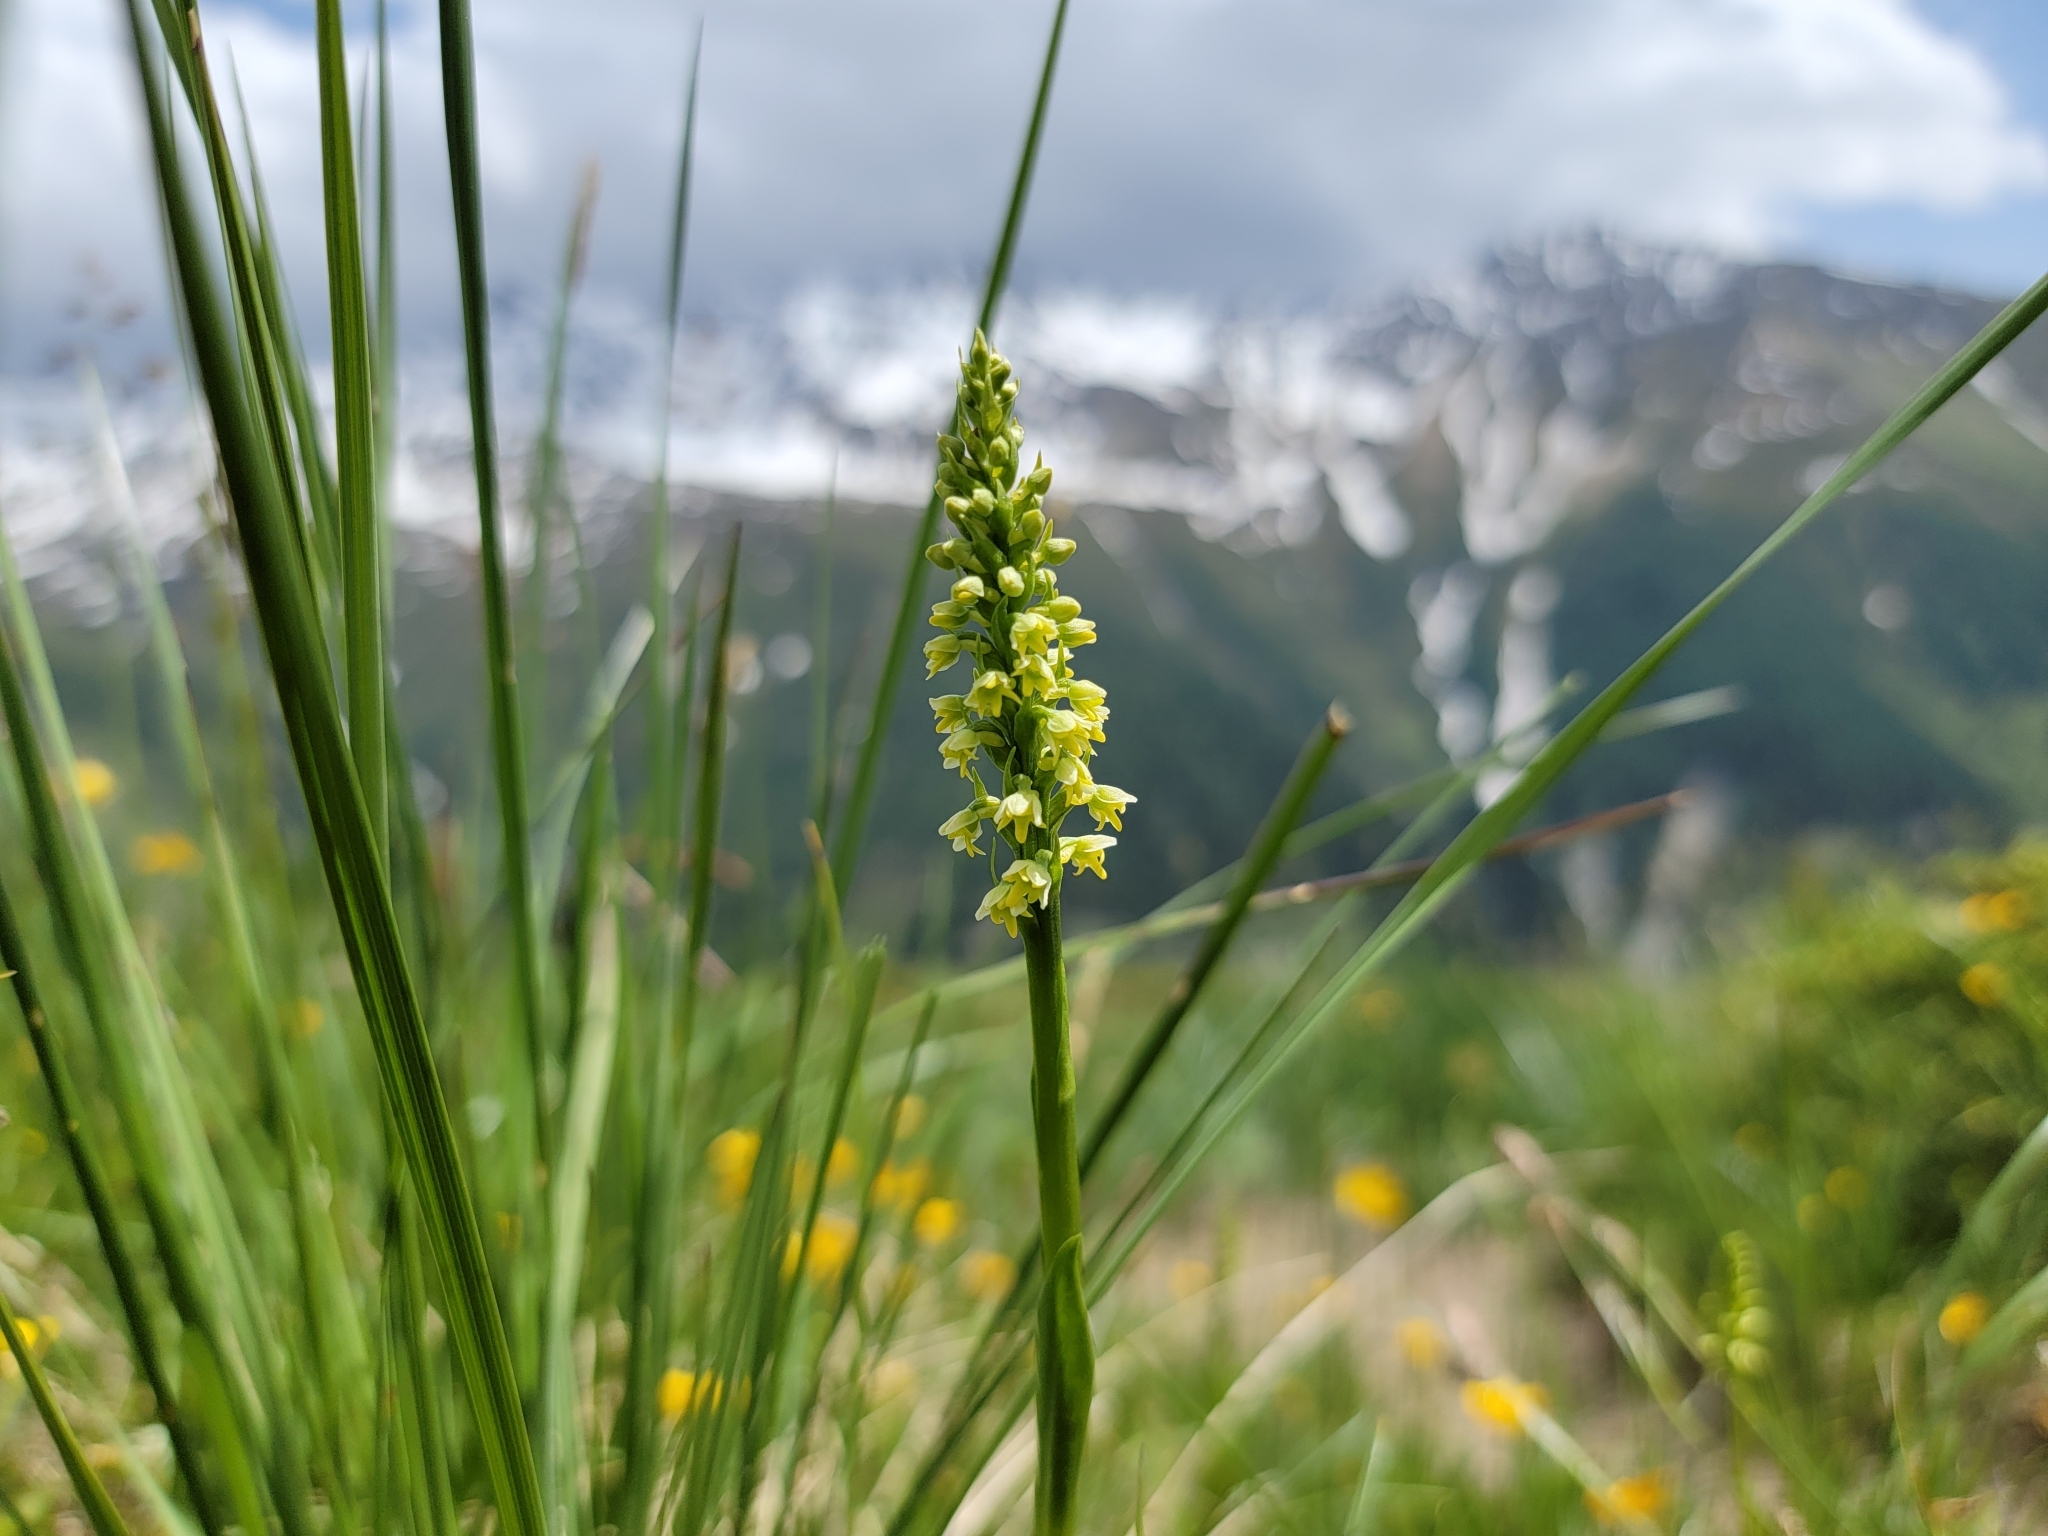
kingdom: Plantae
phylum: Tracheophyta
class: Liliopsida
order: Asparagales
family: Orchidaceae
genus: Pseudorchis
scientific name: Pseudorchis albida
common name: Small-white orchid
